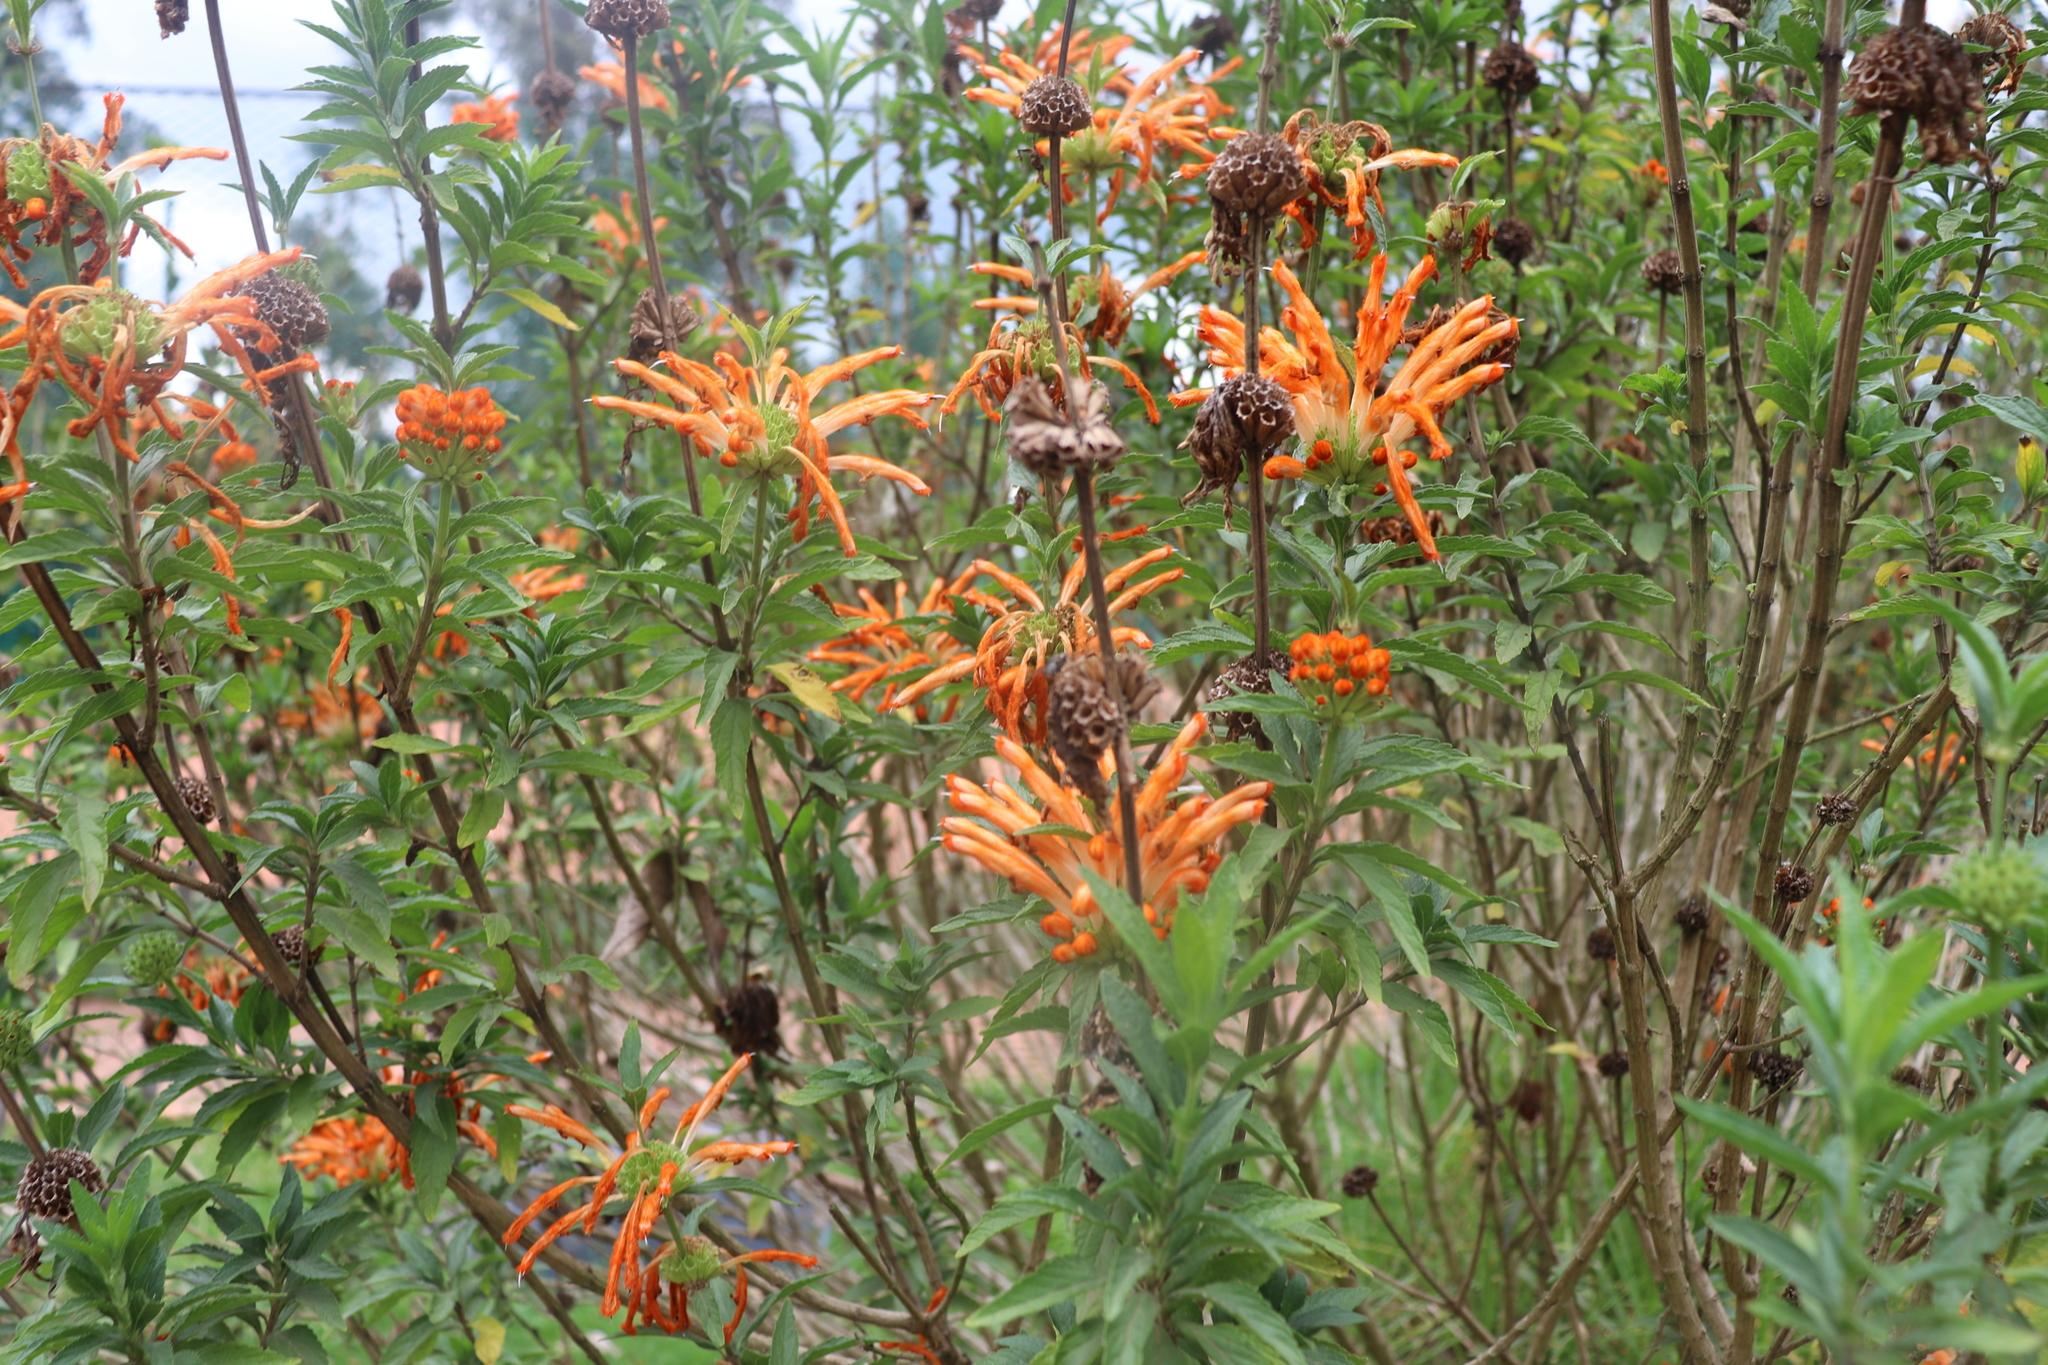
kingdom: Plantae
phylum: Tracheophyta
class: Magnoliopsida
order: Lamiales
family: Lamiaceae
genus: Leonotis
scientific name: Leonotis leonurus
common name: Lion's ear
